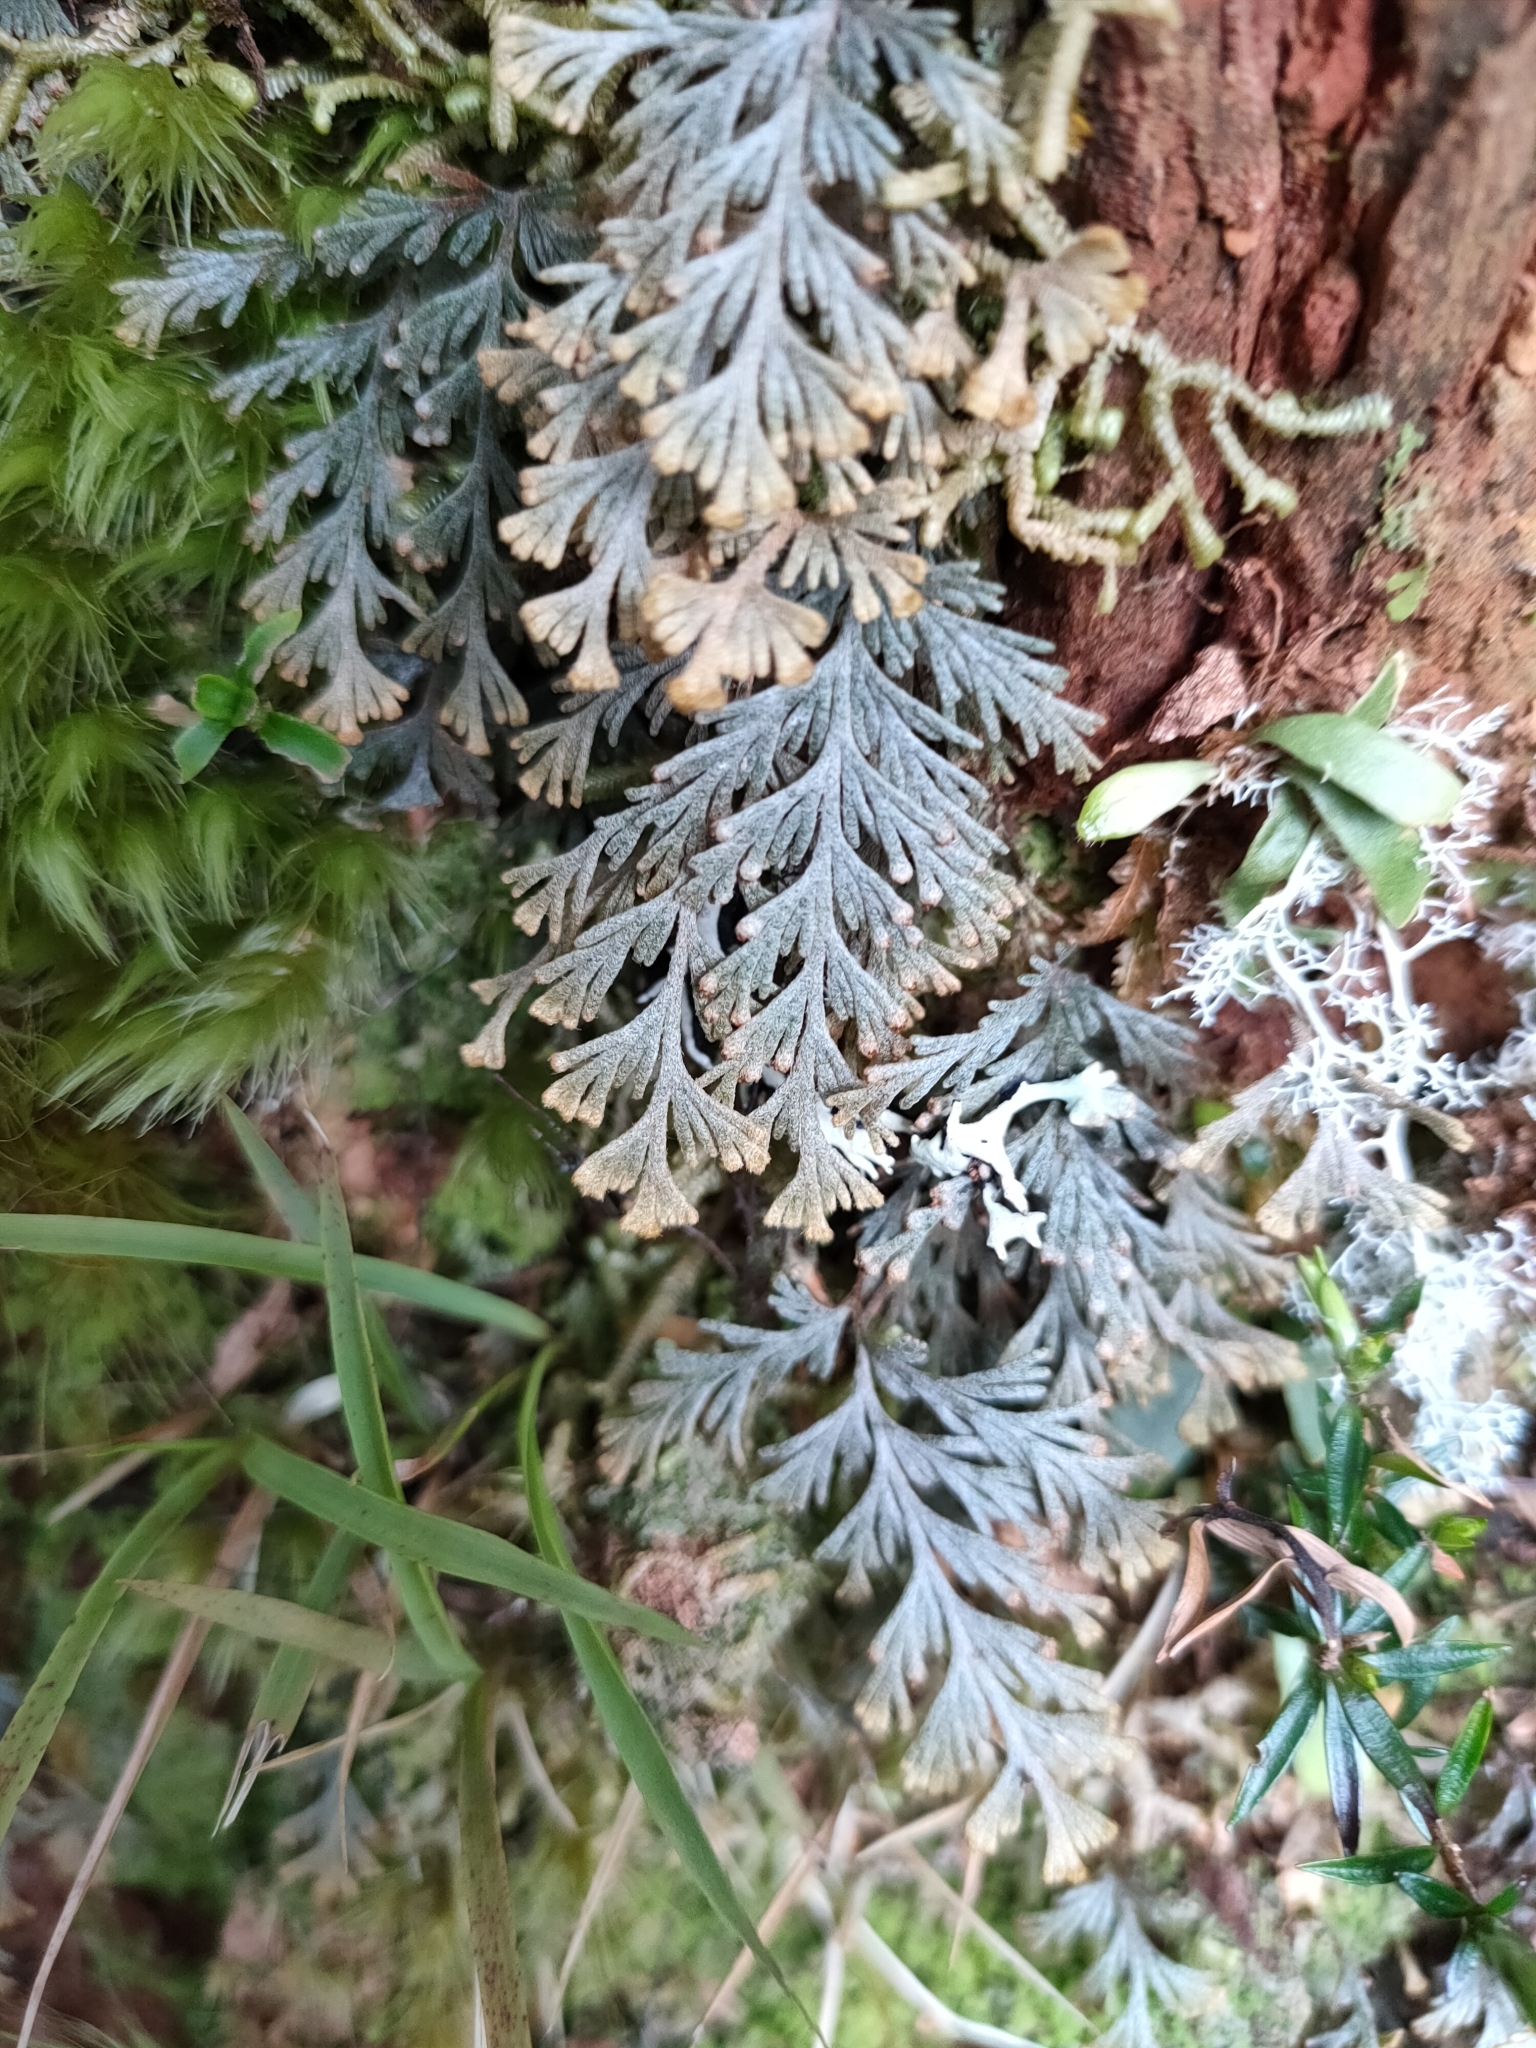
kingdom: Plantae
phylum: Tracheophyta
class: Polypodiopsida
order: Hymenophyllales
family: Hymenophyllaceae
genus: Hymenophyllum
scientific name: Hymenophyllum malingii
